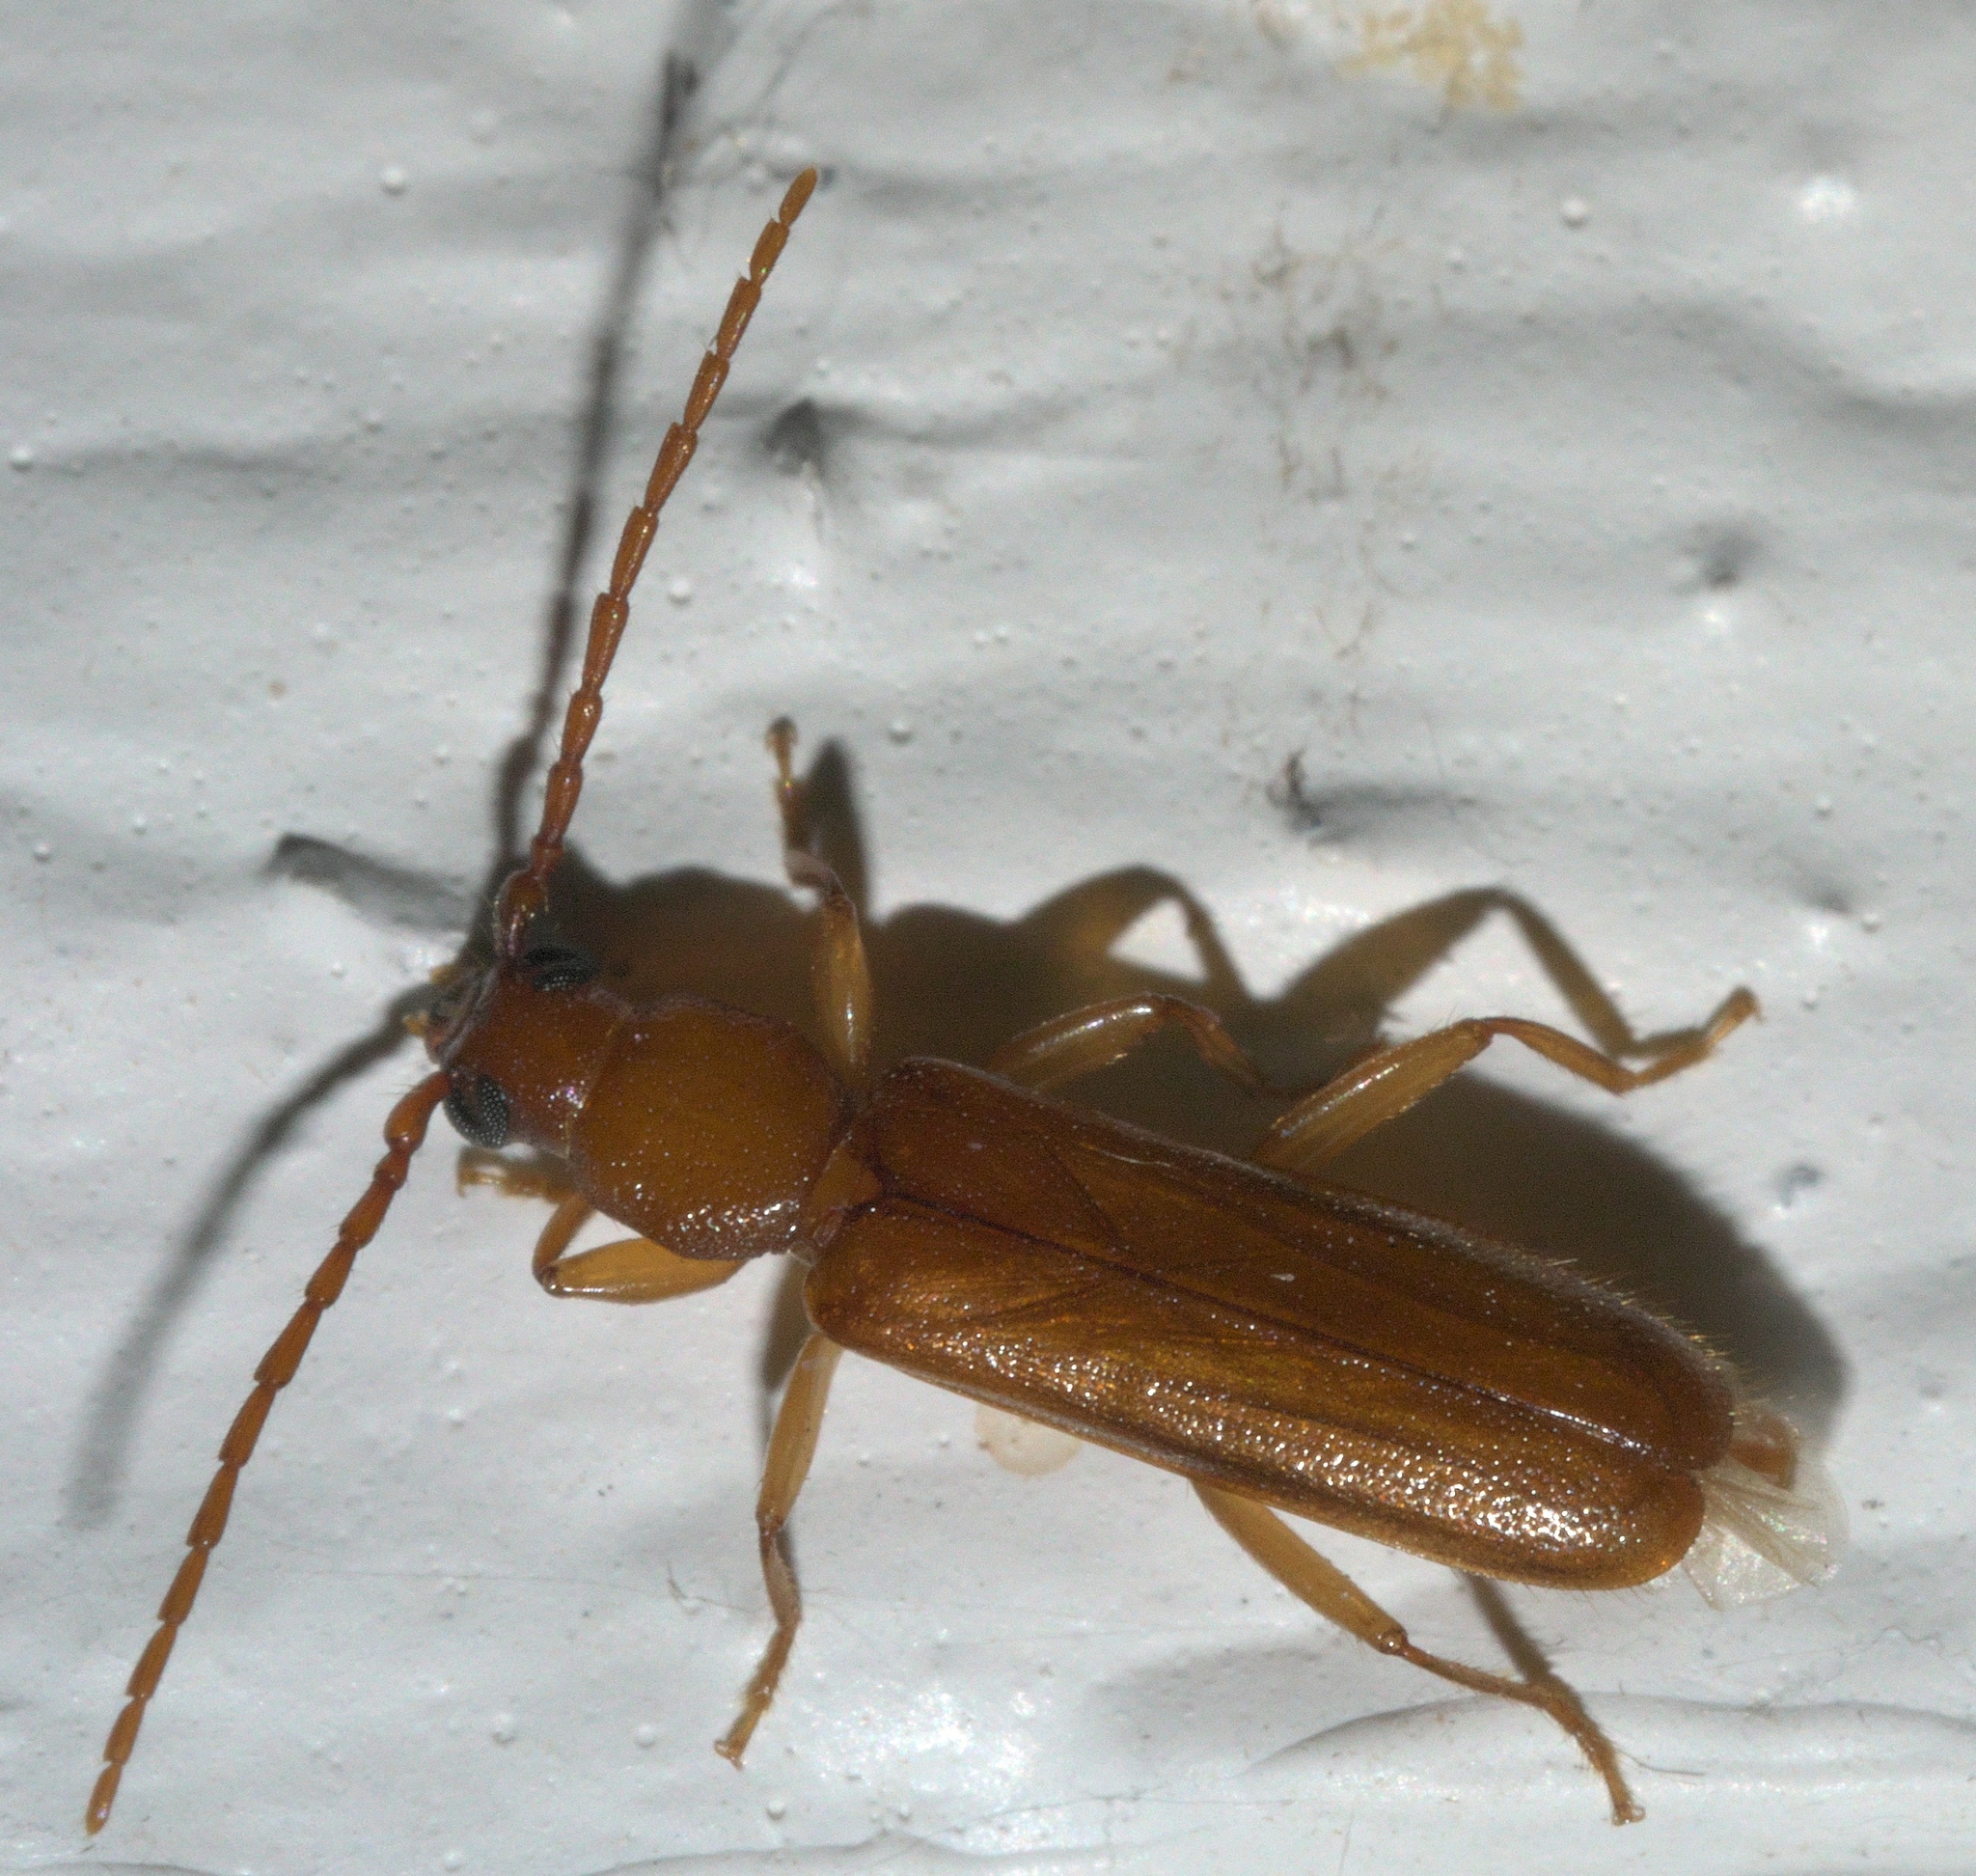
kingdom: Animalia
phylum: Arthropoda
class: Insecta
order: Coleoptera
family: Cerambycidae
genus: Smodicum
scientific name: Smodicum cucujiforme
